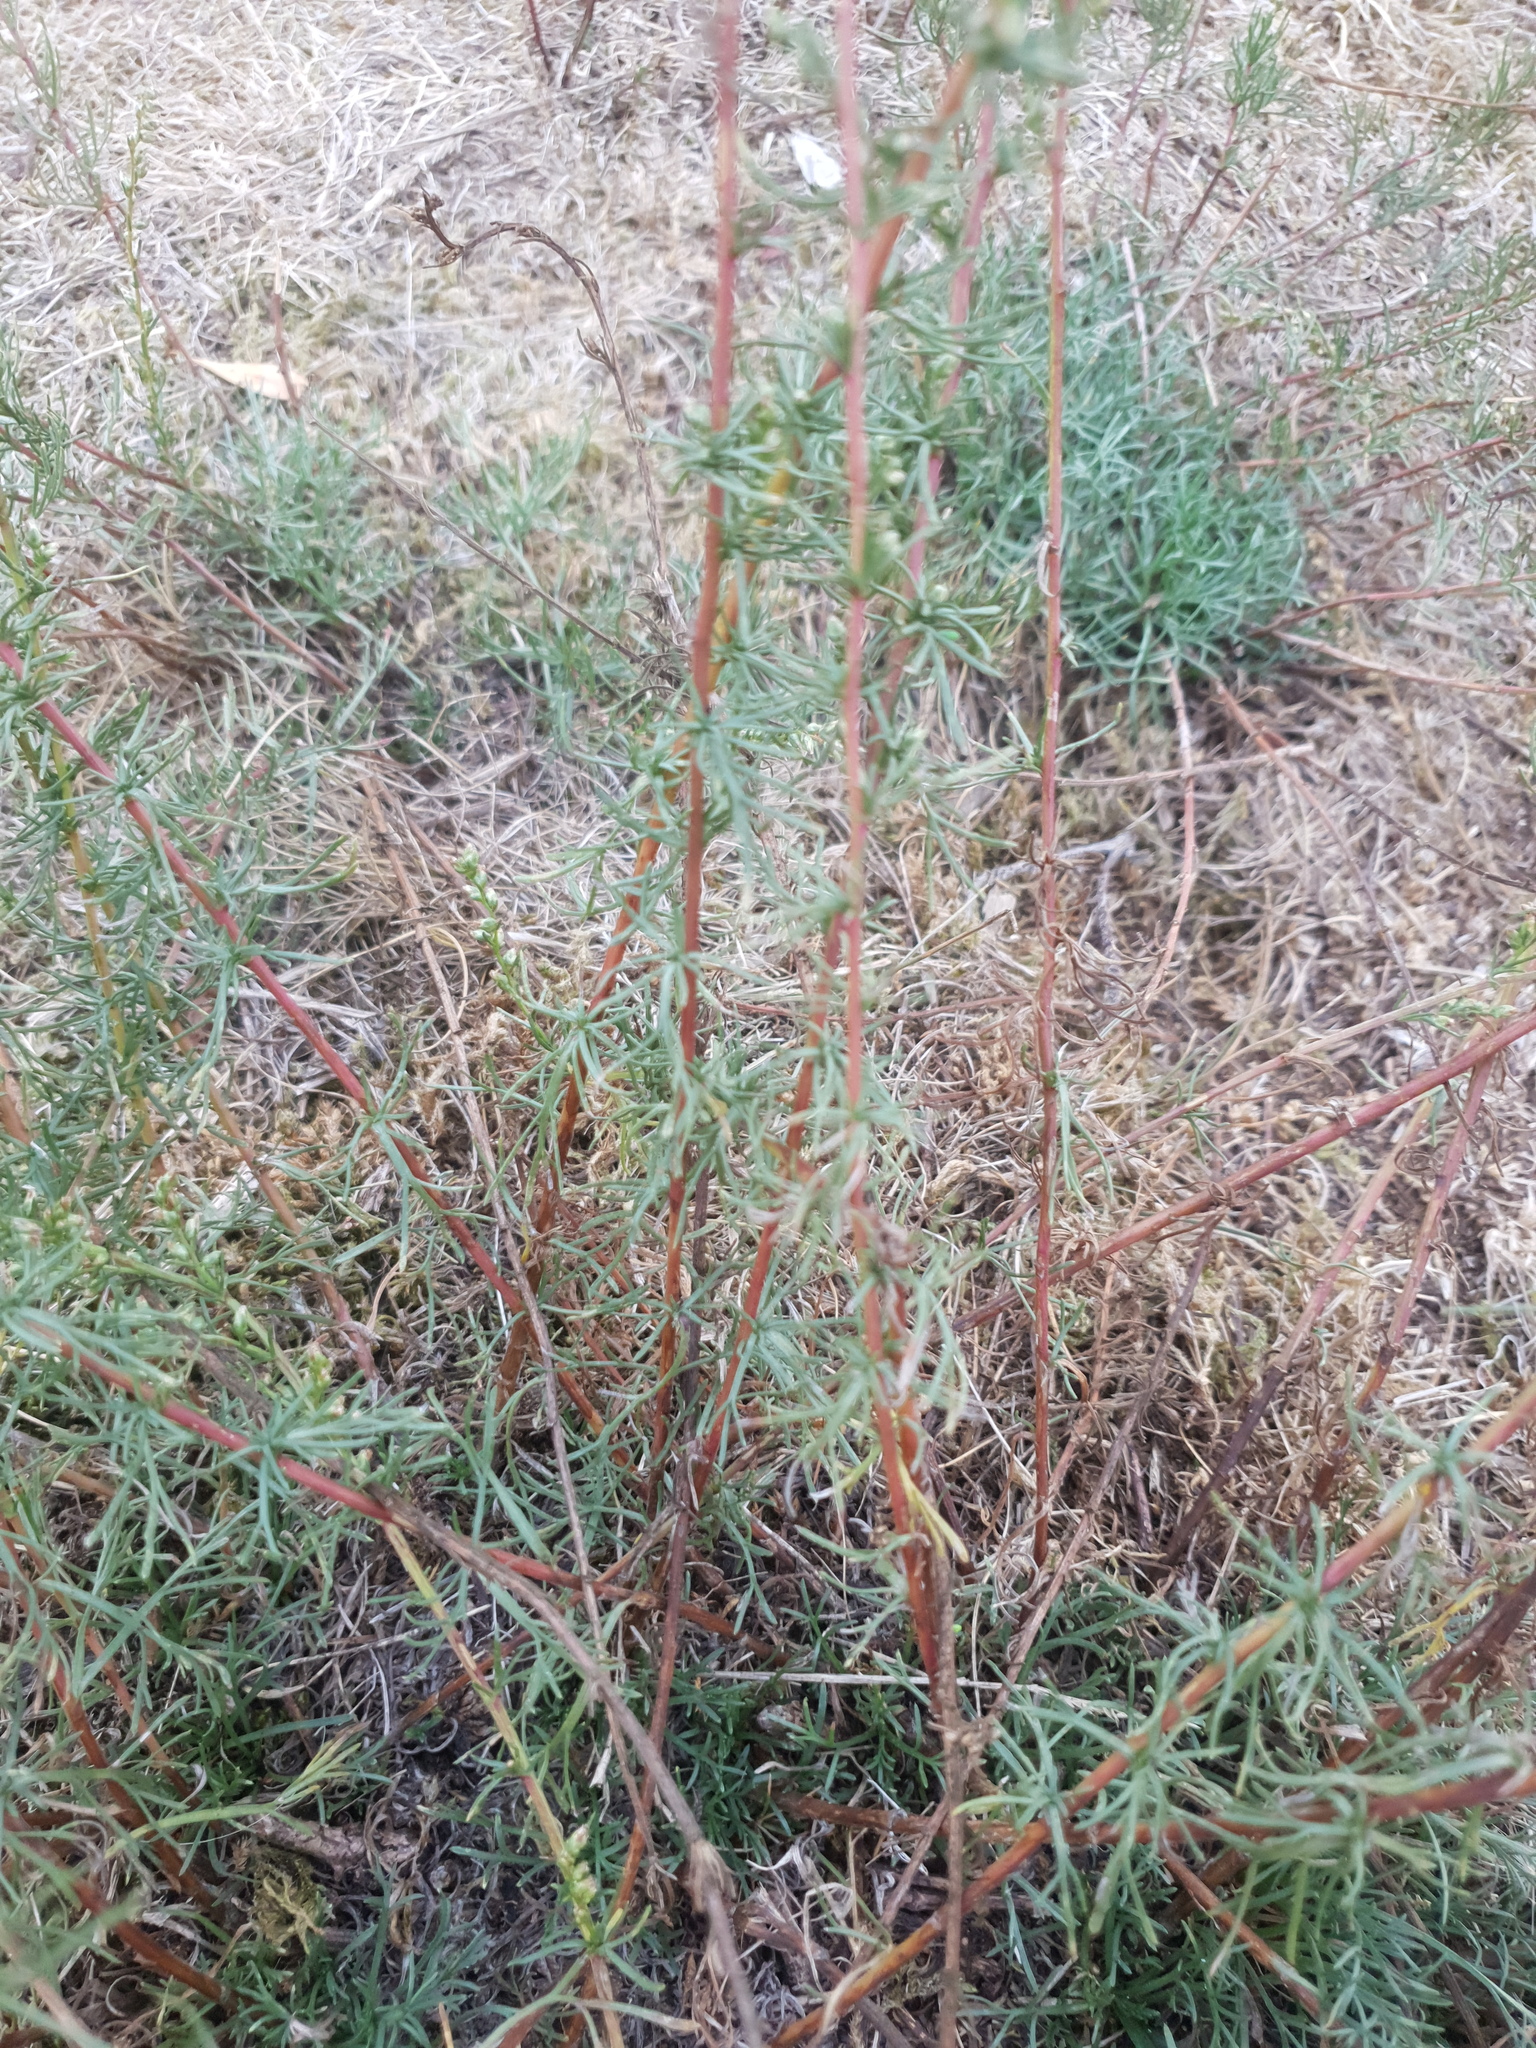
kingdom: Plantae
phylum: Tracheophyta
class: Magnoliopsida
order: Asterales
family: Asteraceae
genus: Artemisia
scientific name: Artemisia campestris
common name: Field wormwood
